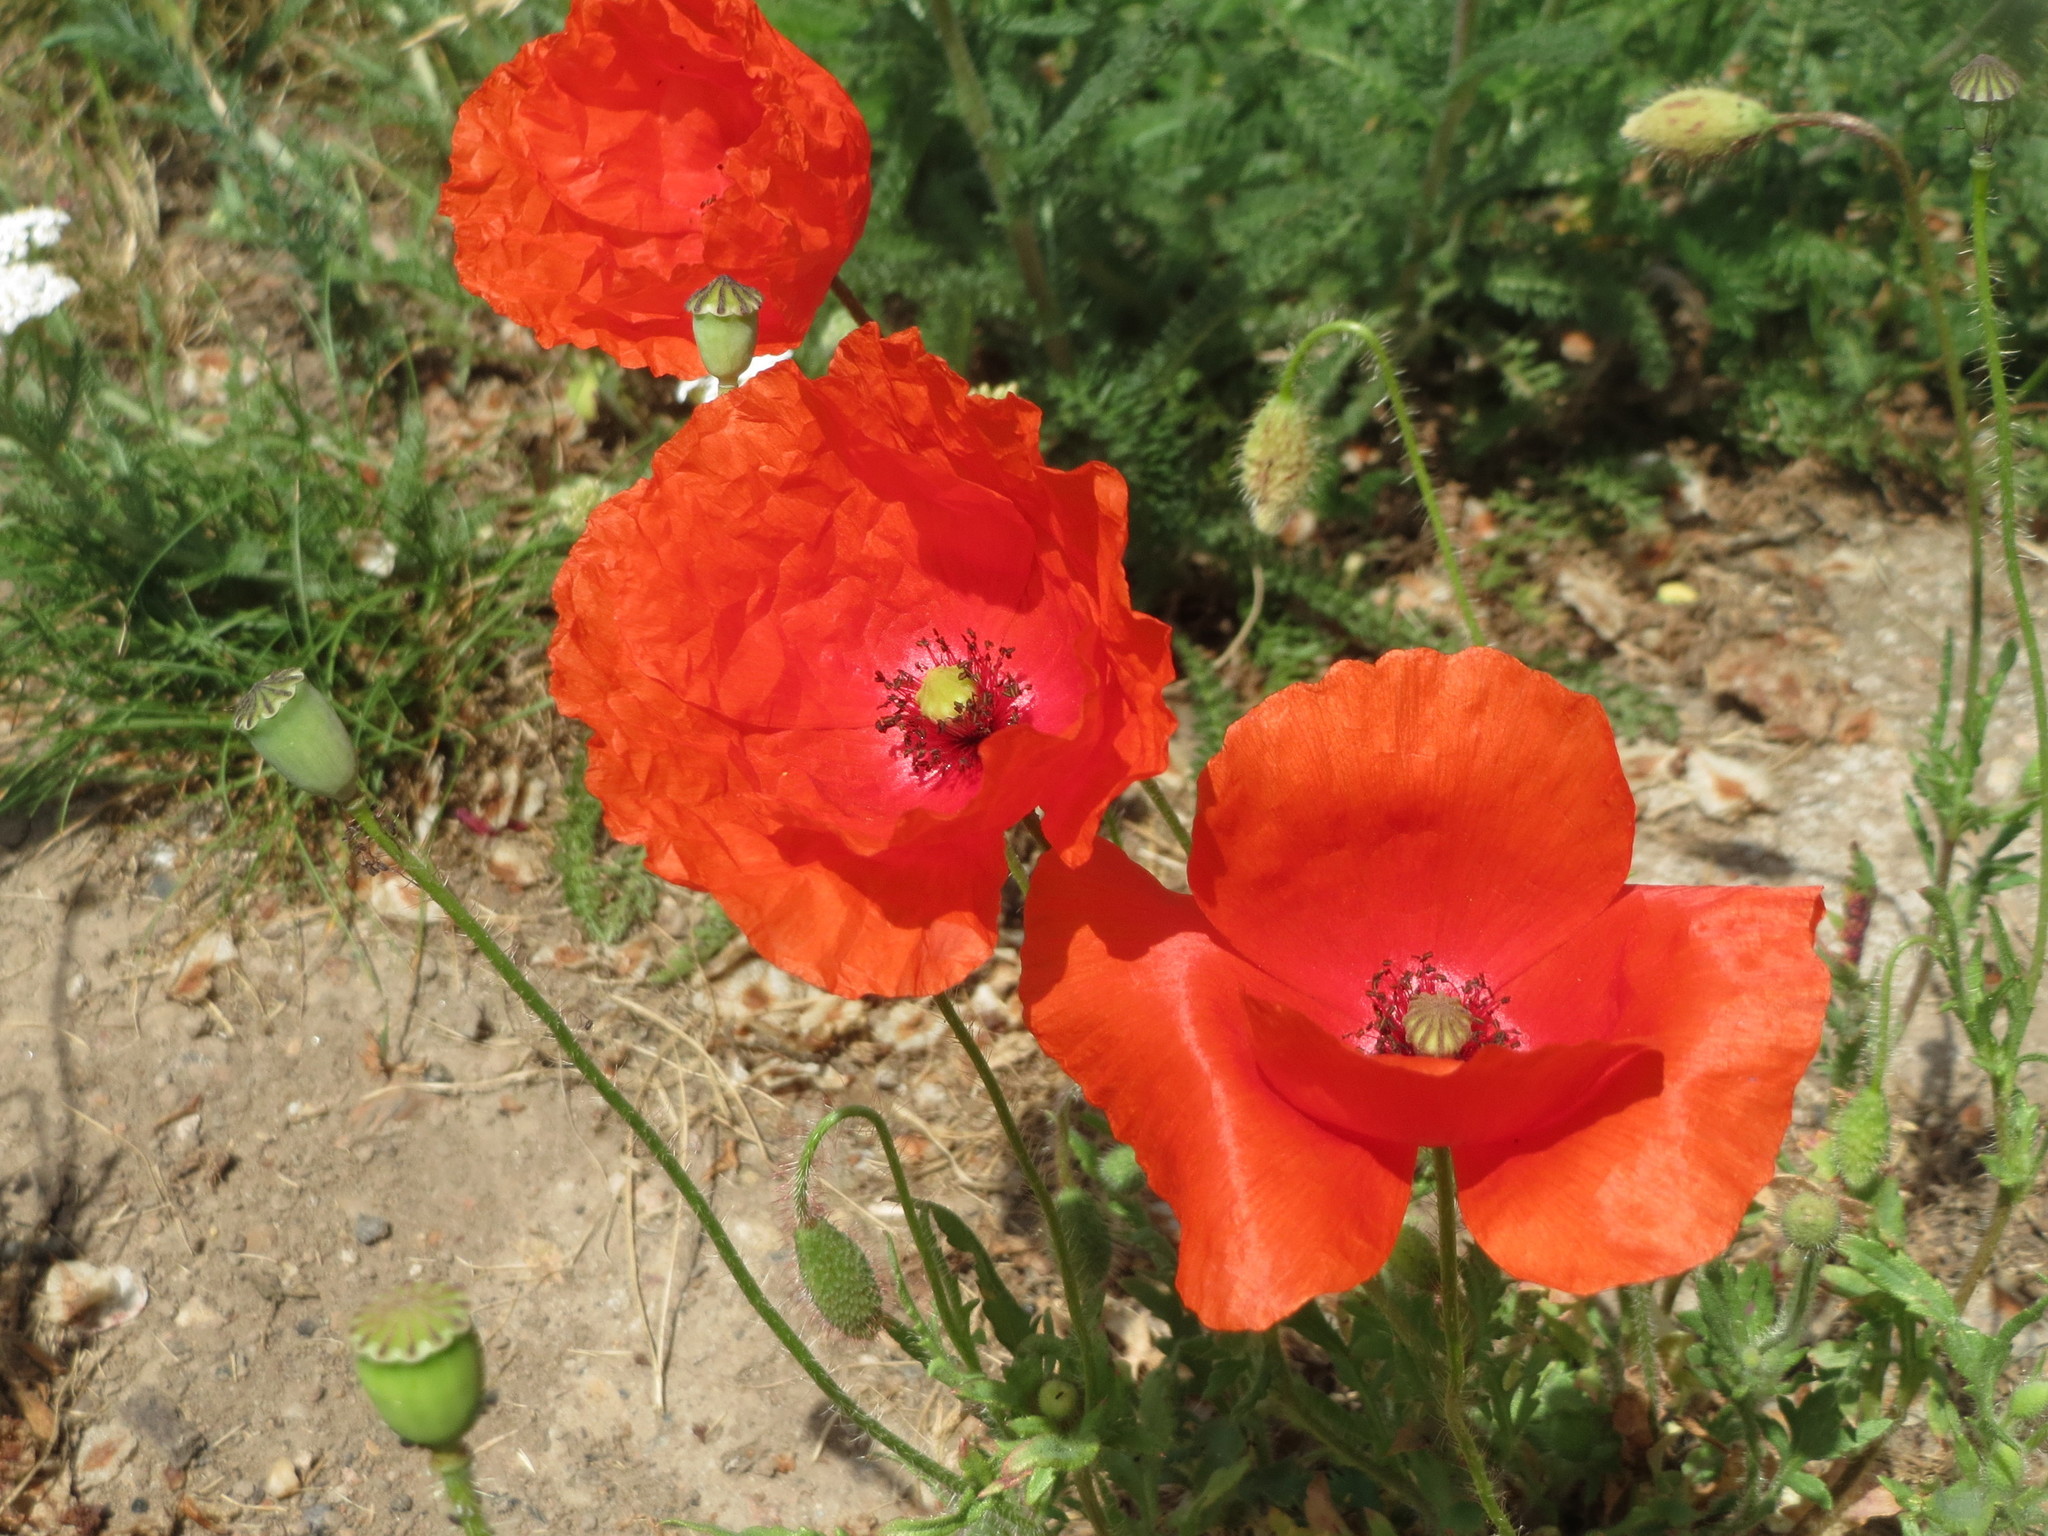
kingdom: Plantae
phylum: Tracheophyta
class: Magnoliopsida
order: Ranunculales
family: Papaveraceae
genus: Papaver
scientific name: Papaver rhoeas
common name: Corn poppy
